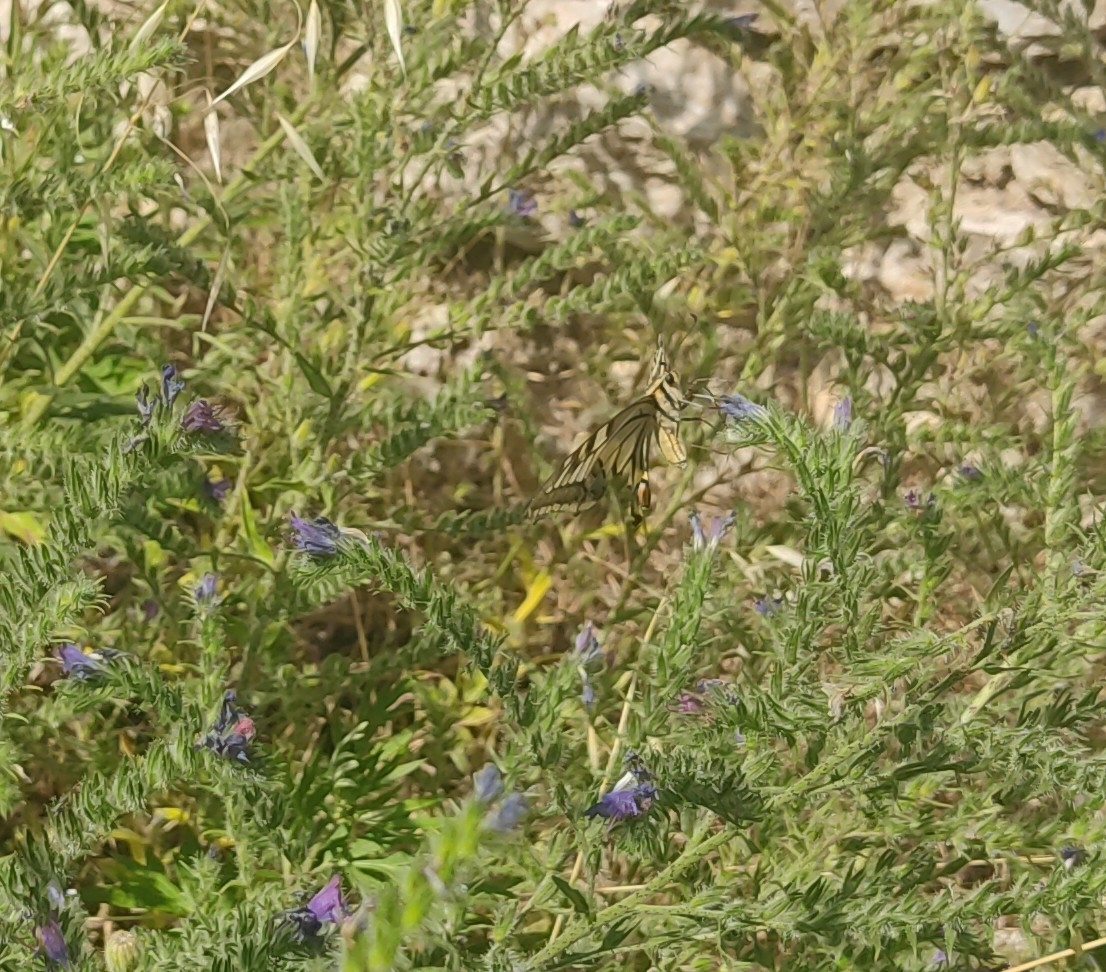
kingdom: Animalia
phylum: Arthropoda
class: Insecta
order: Lepidoptera
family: Papilionidae
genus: Papilio
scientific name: Papilio machaon
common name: Swallowtail
